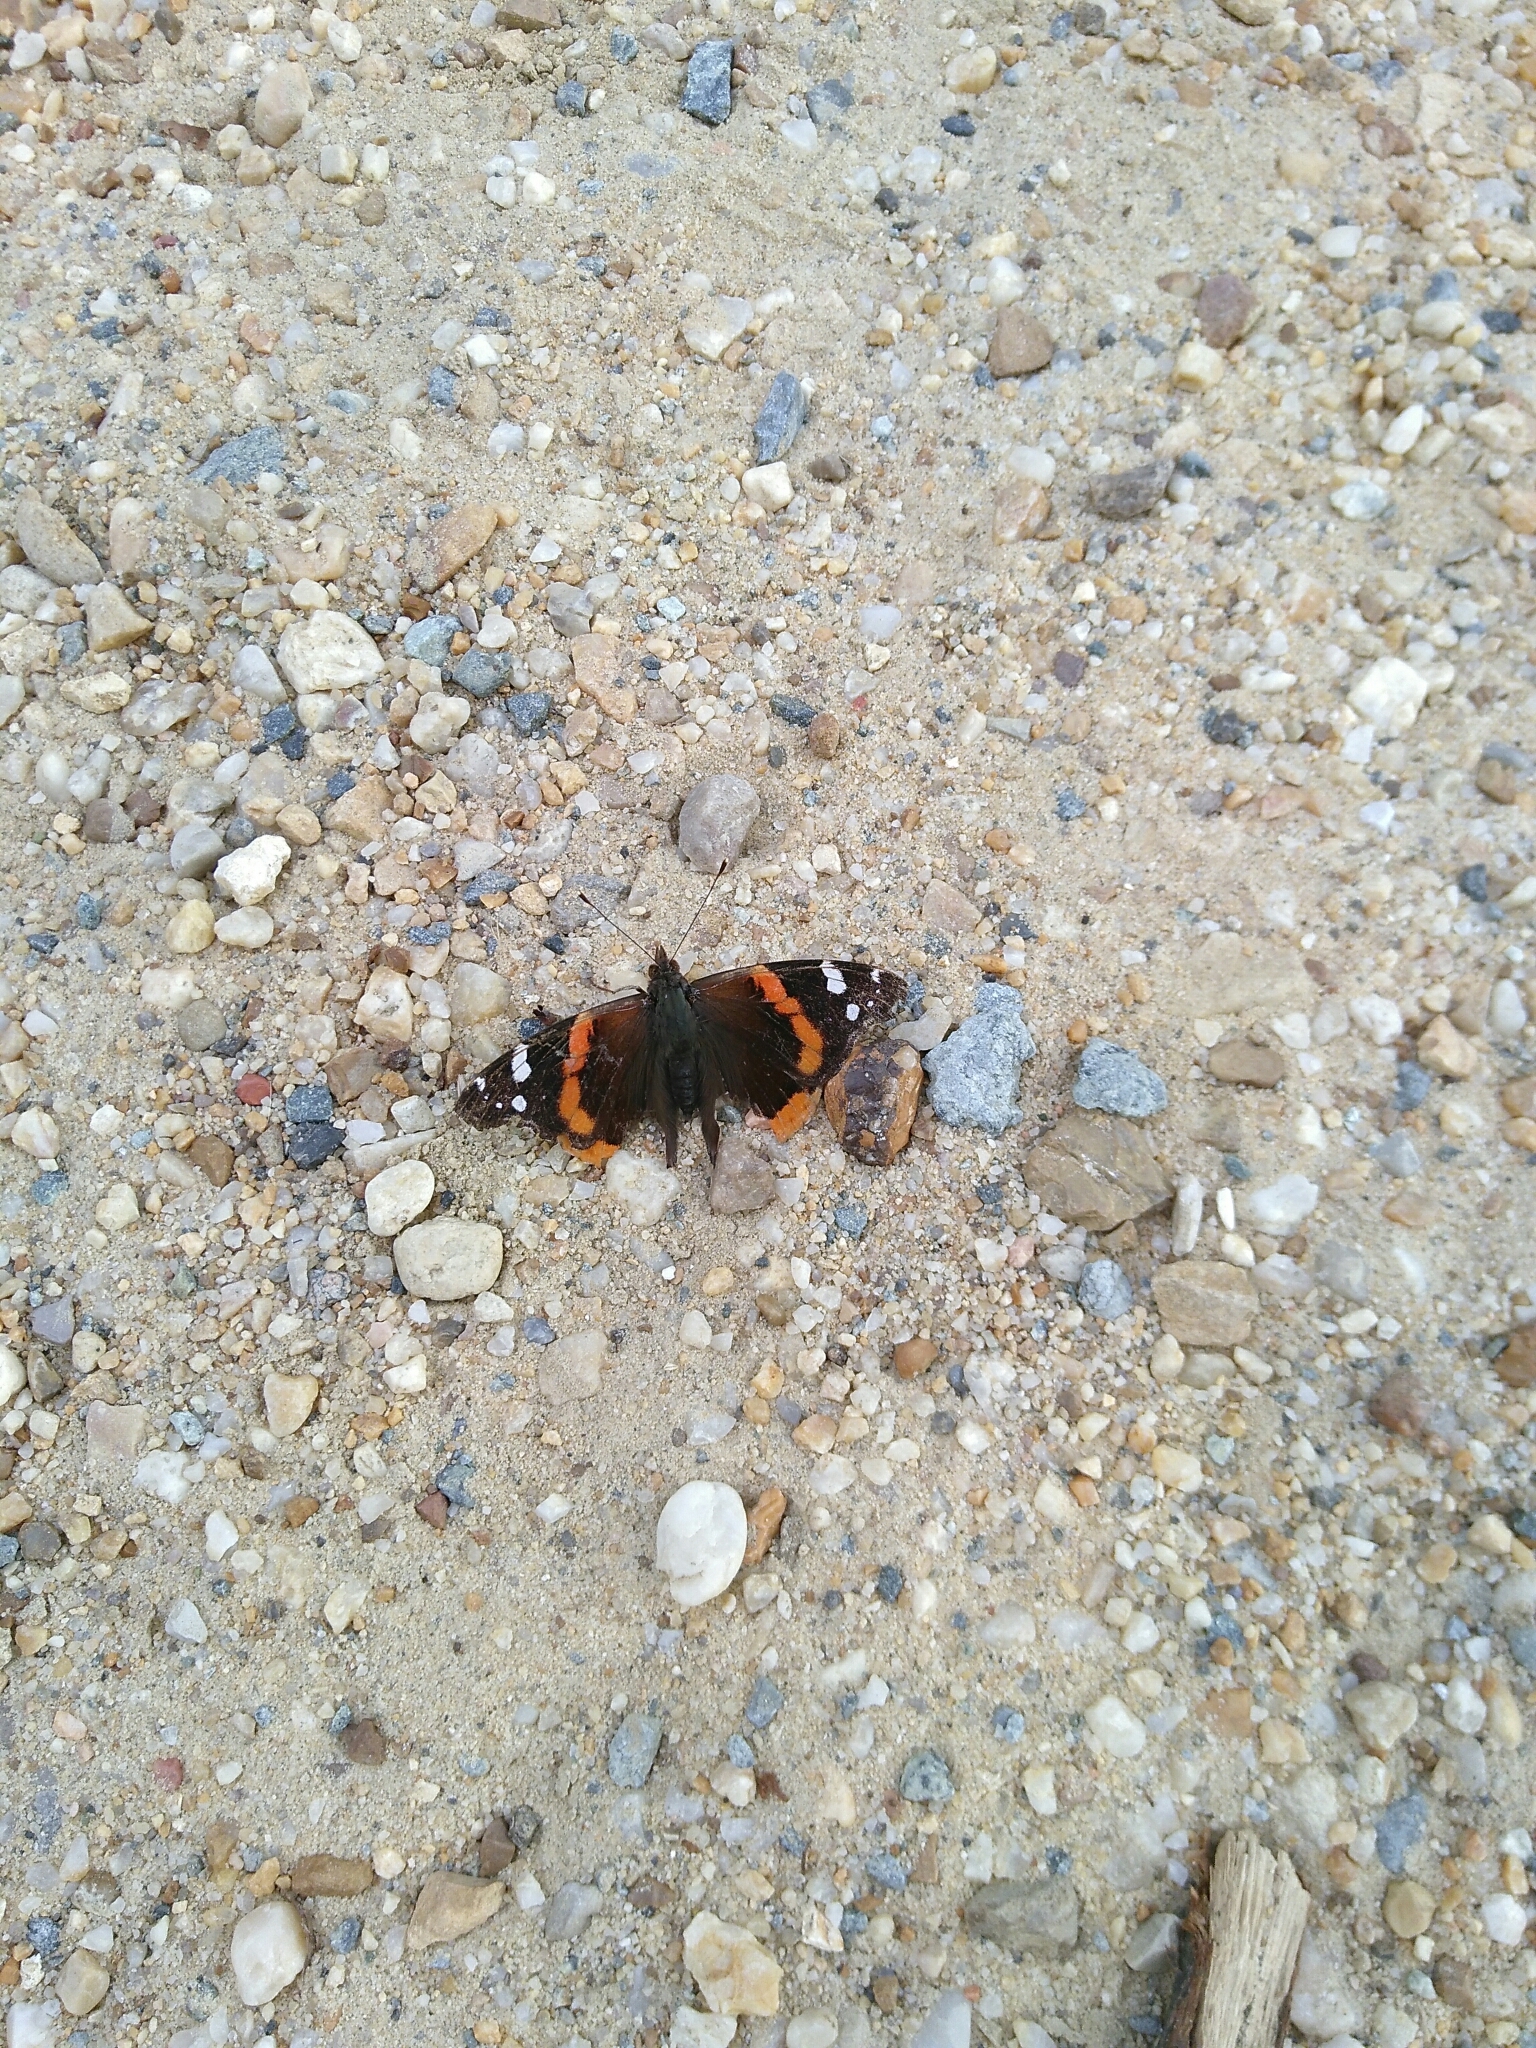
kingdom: Animalia
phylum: Arthropoda
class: Insecta
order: Lepidoptera
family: Nymphalidae
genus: Vanessa
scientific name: Vanessa atalanta
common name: Red admiral
